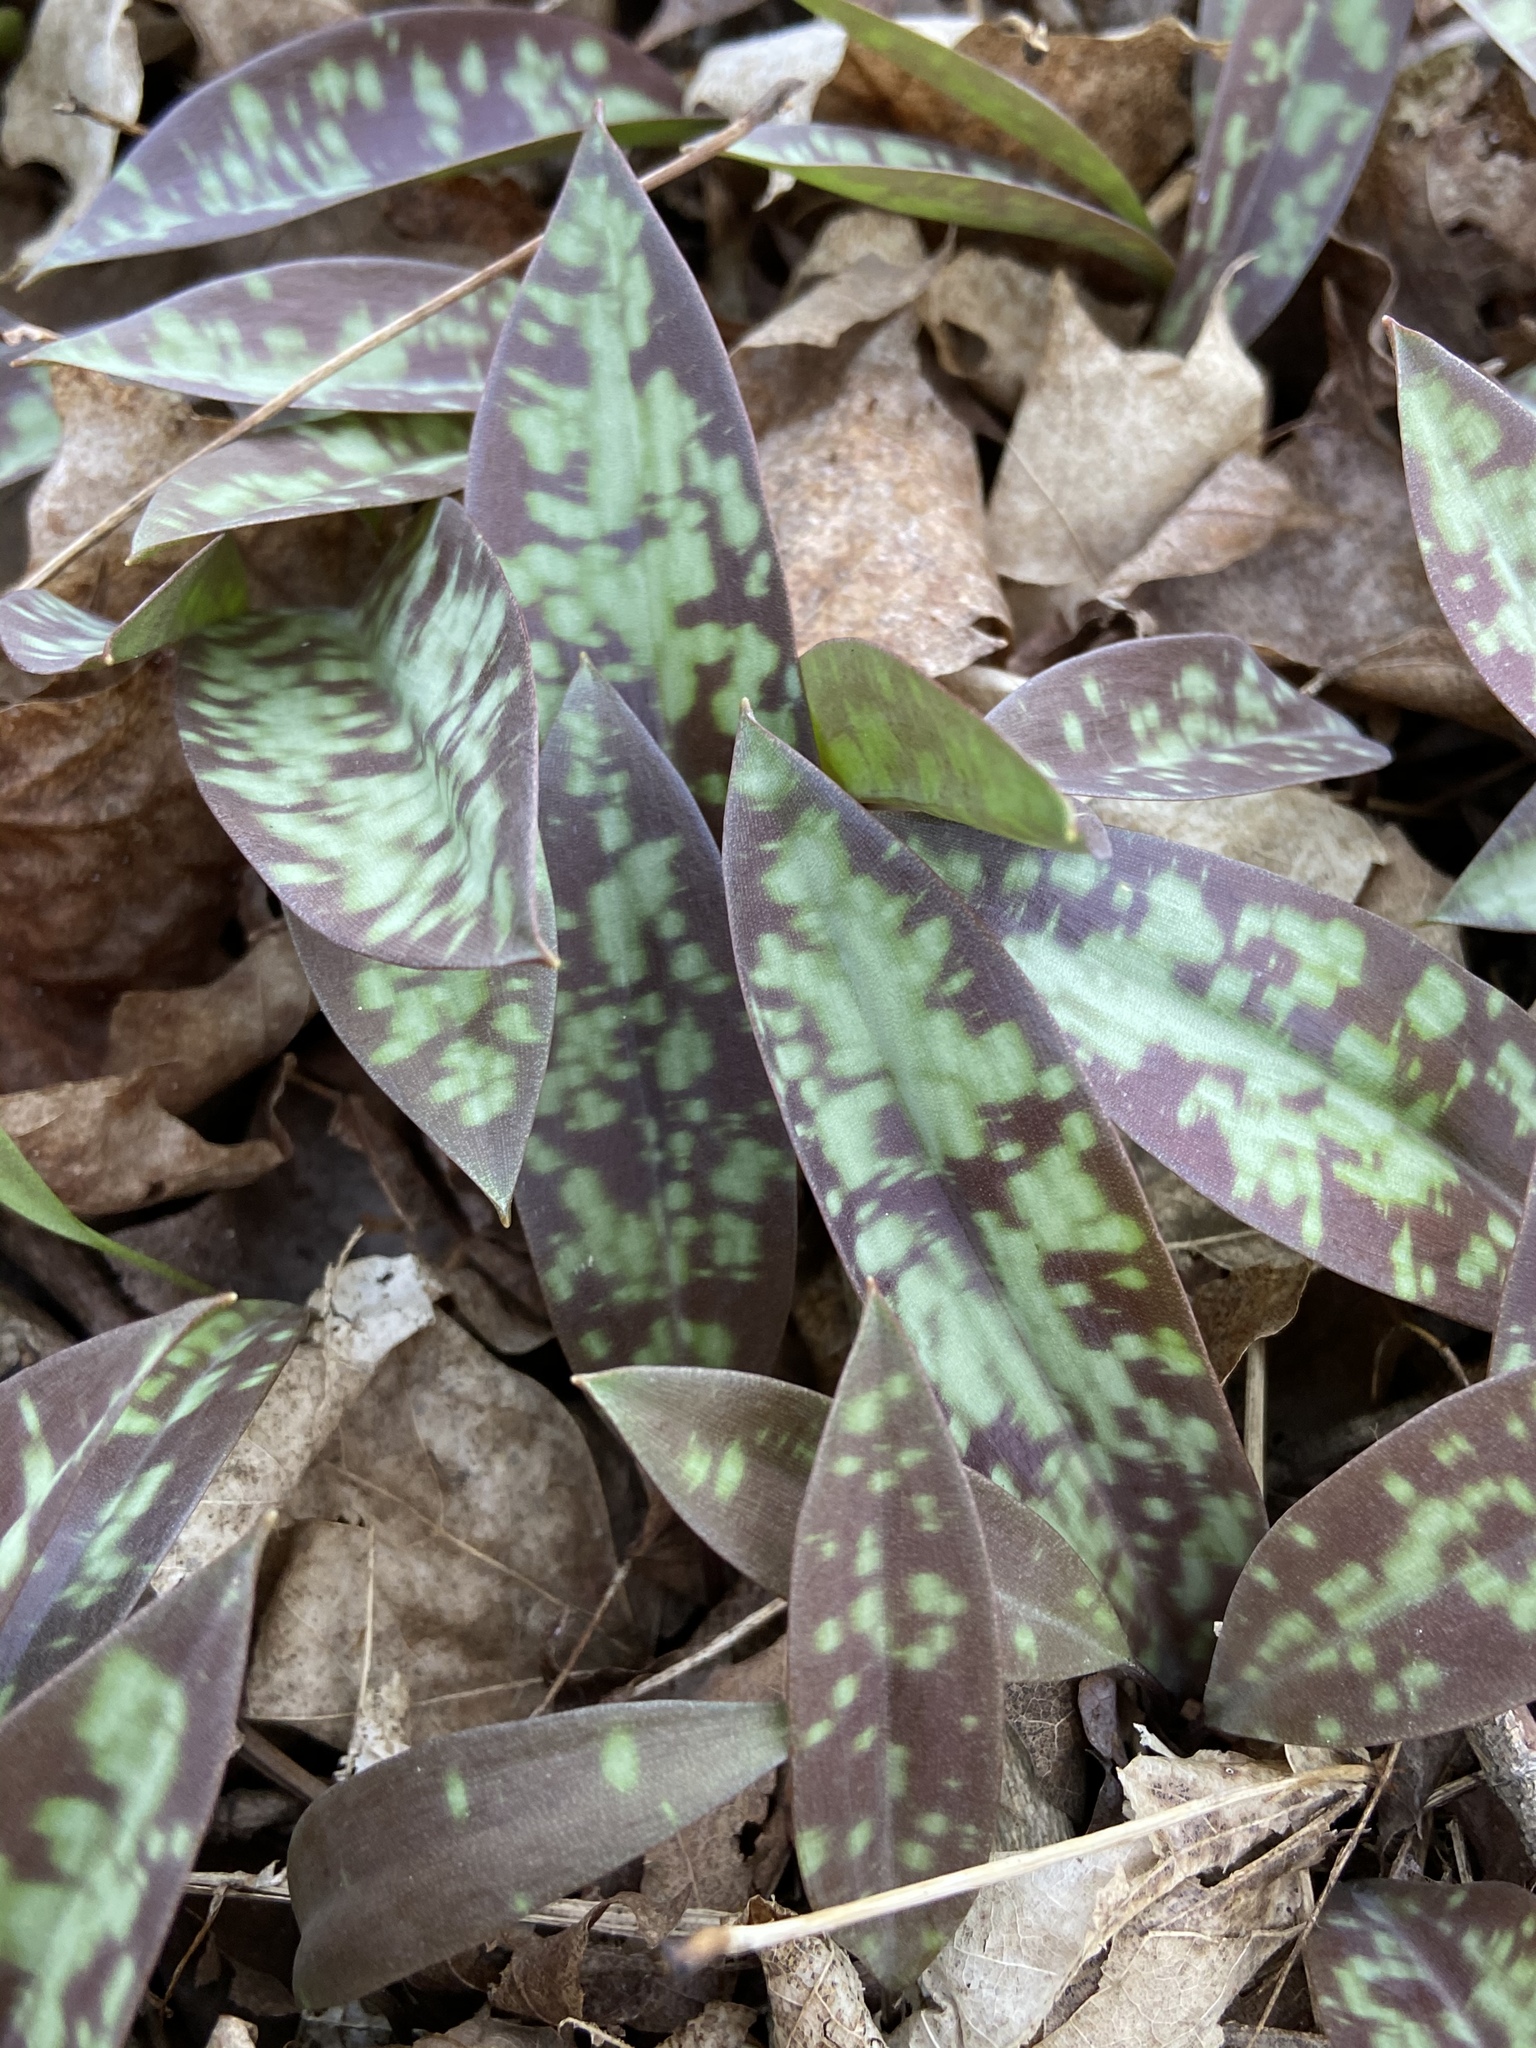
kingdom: Plantae
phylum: Tracheophyta
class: Liliopsida
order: Liliales
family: Liliaceae
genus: Erythronium
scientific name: Erythronium americanum
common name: Yellow adder's-tongue
